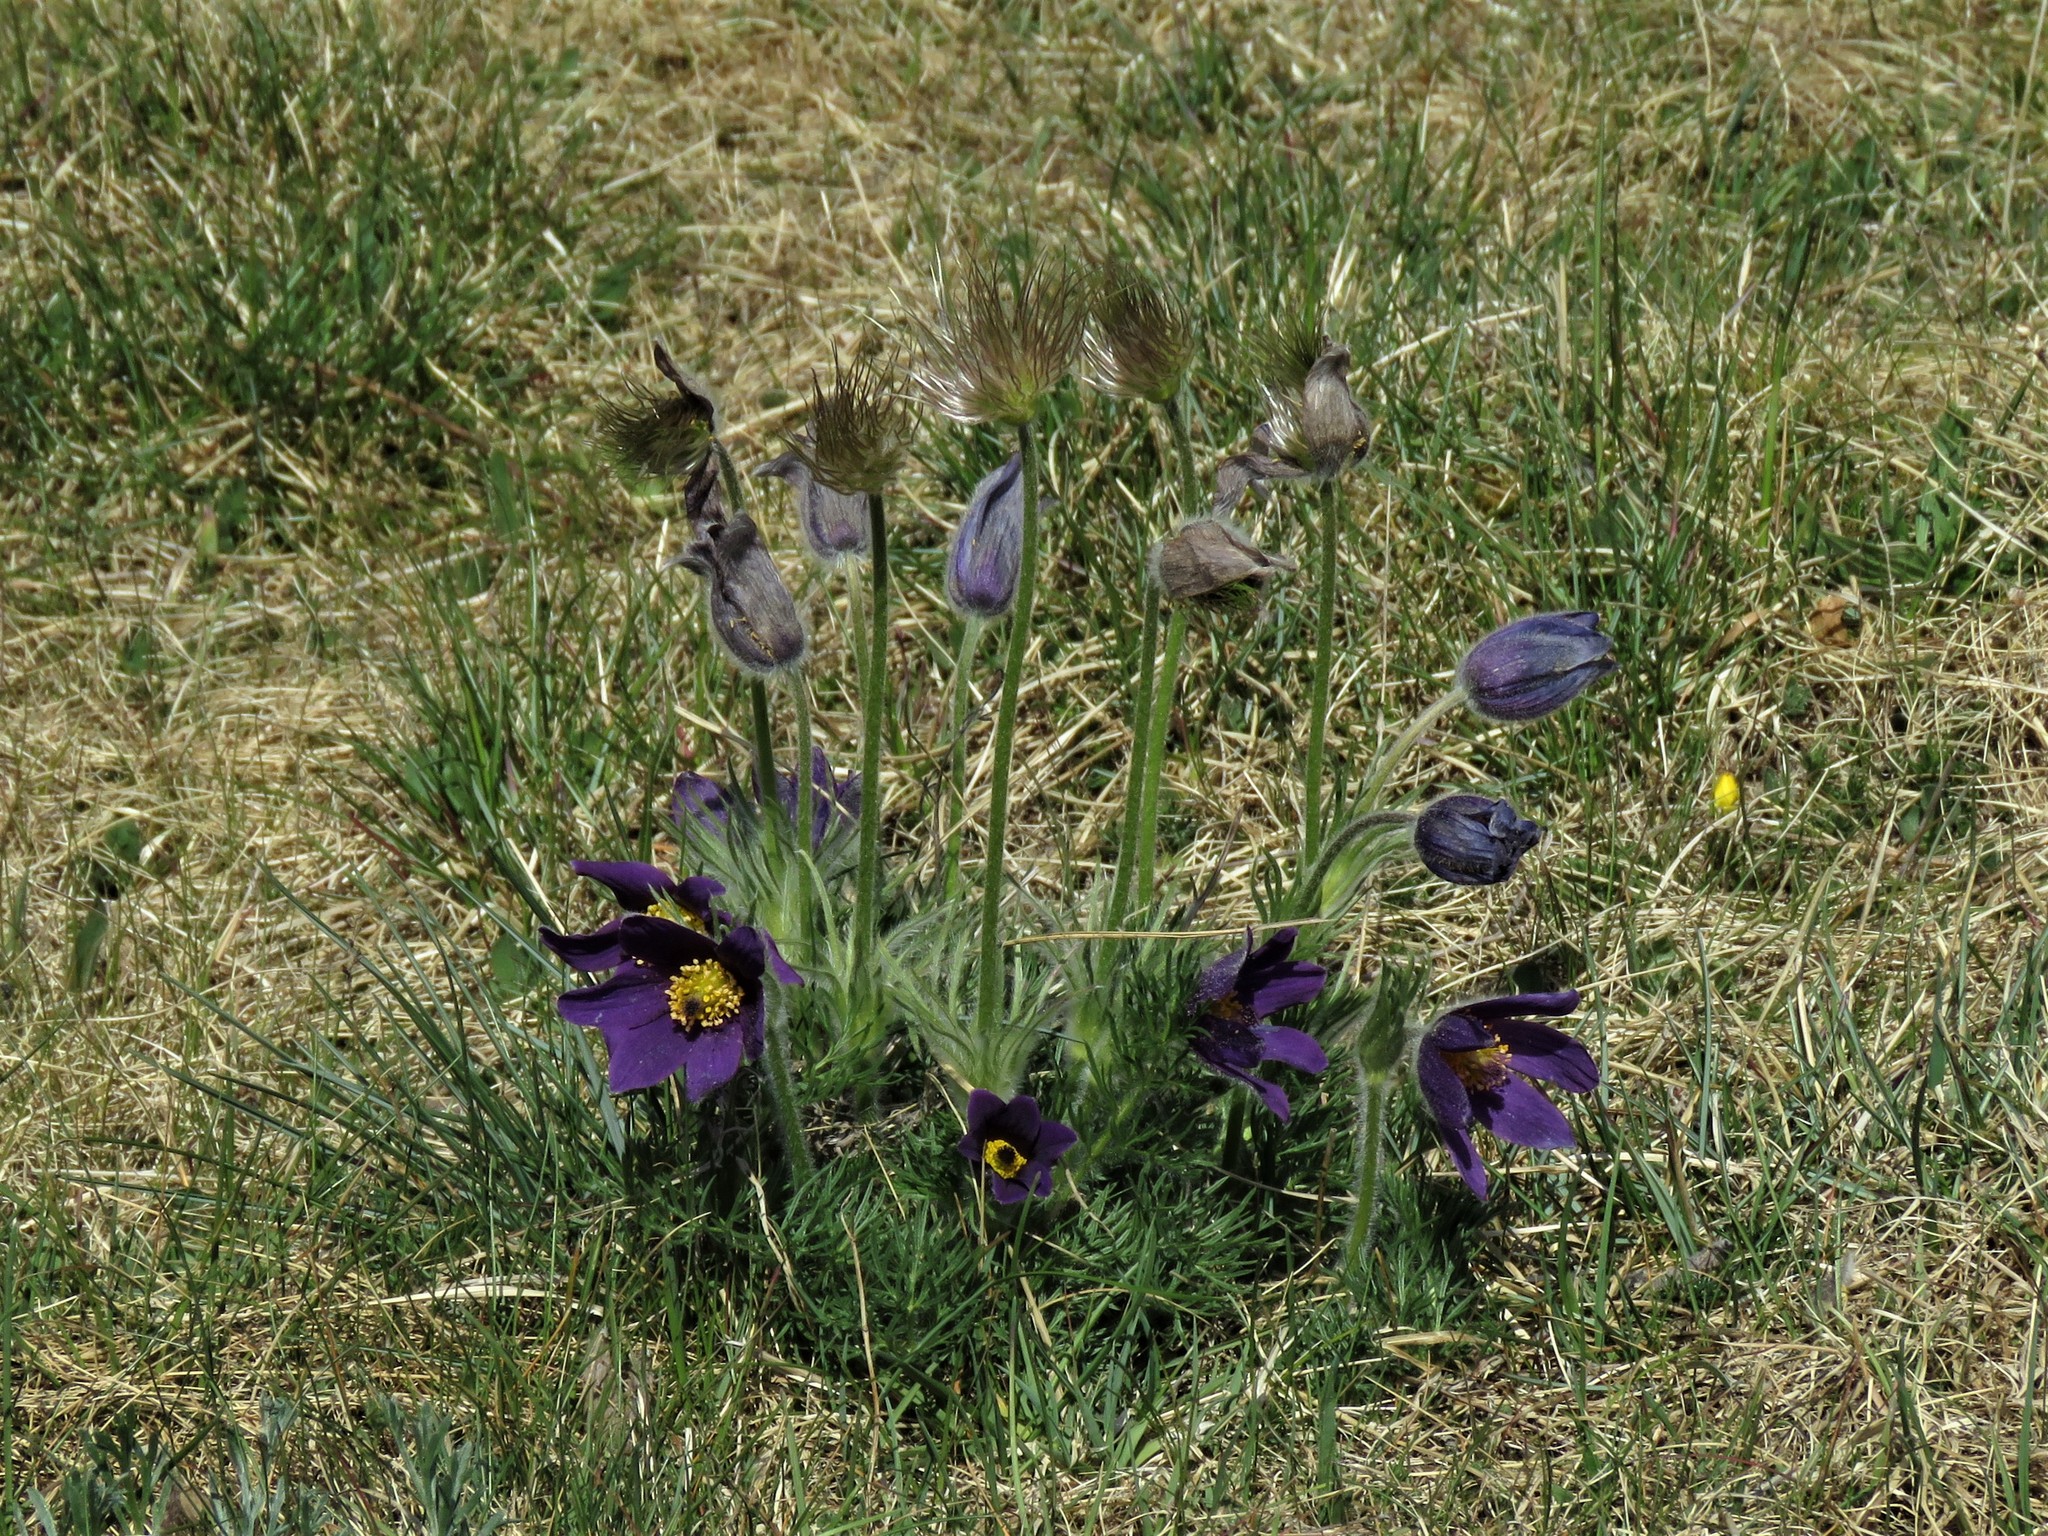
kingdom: Plantae
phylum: Tracheophyta
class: Magnoliopsida
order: Ranunculales
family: Ranunculaceae
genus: Pulsatilla
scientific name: Pulsatilla vulgaris
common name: Pasqueflower
